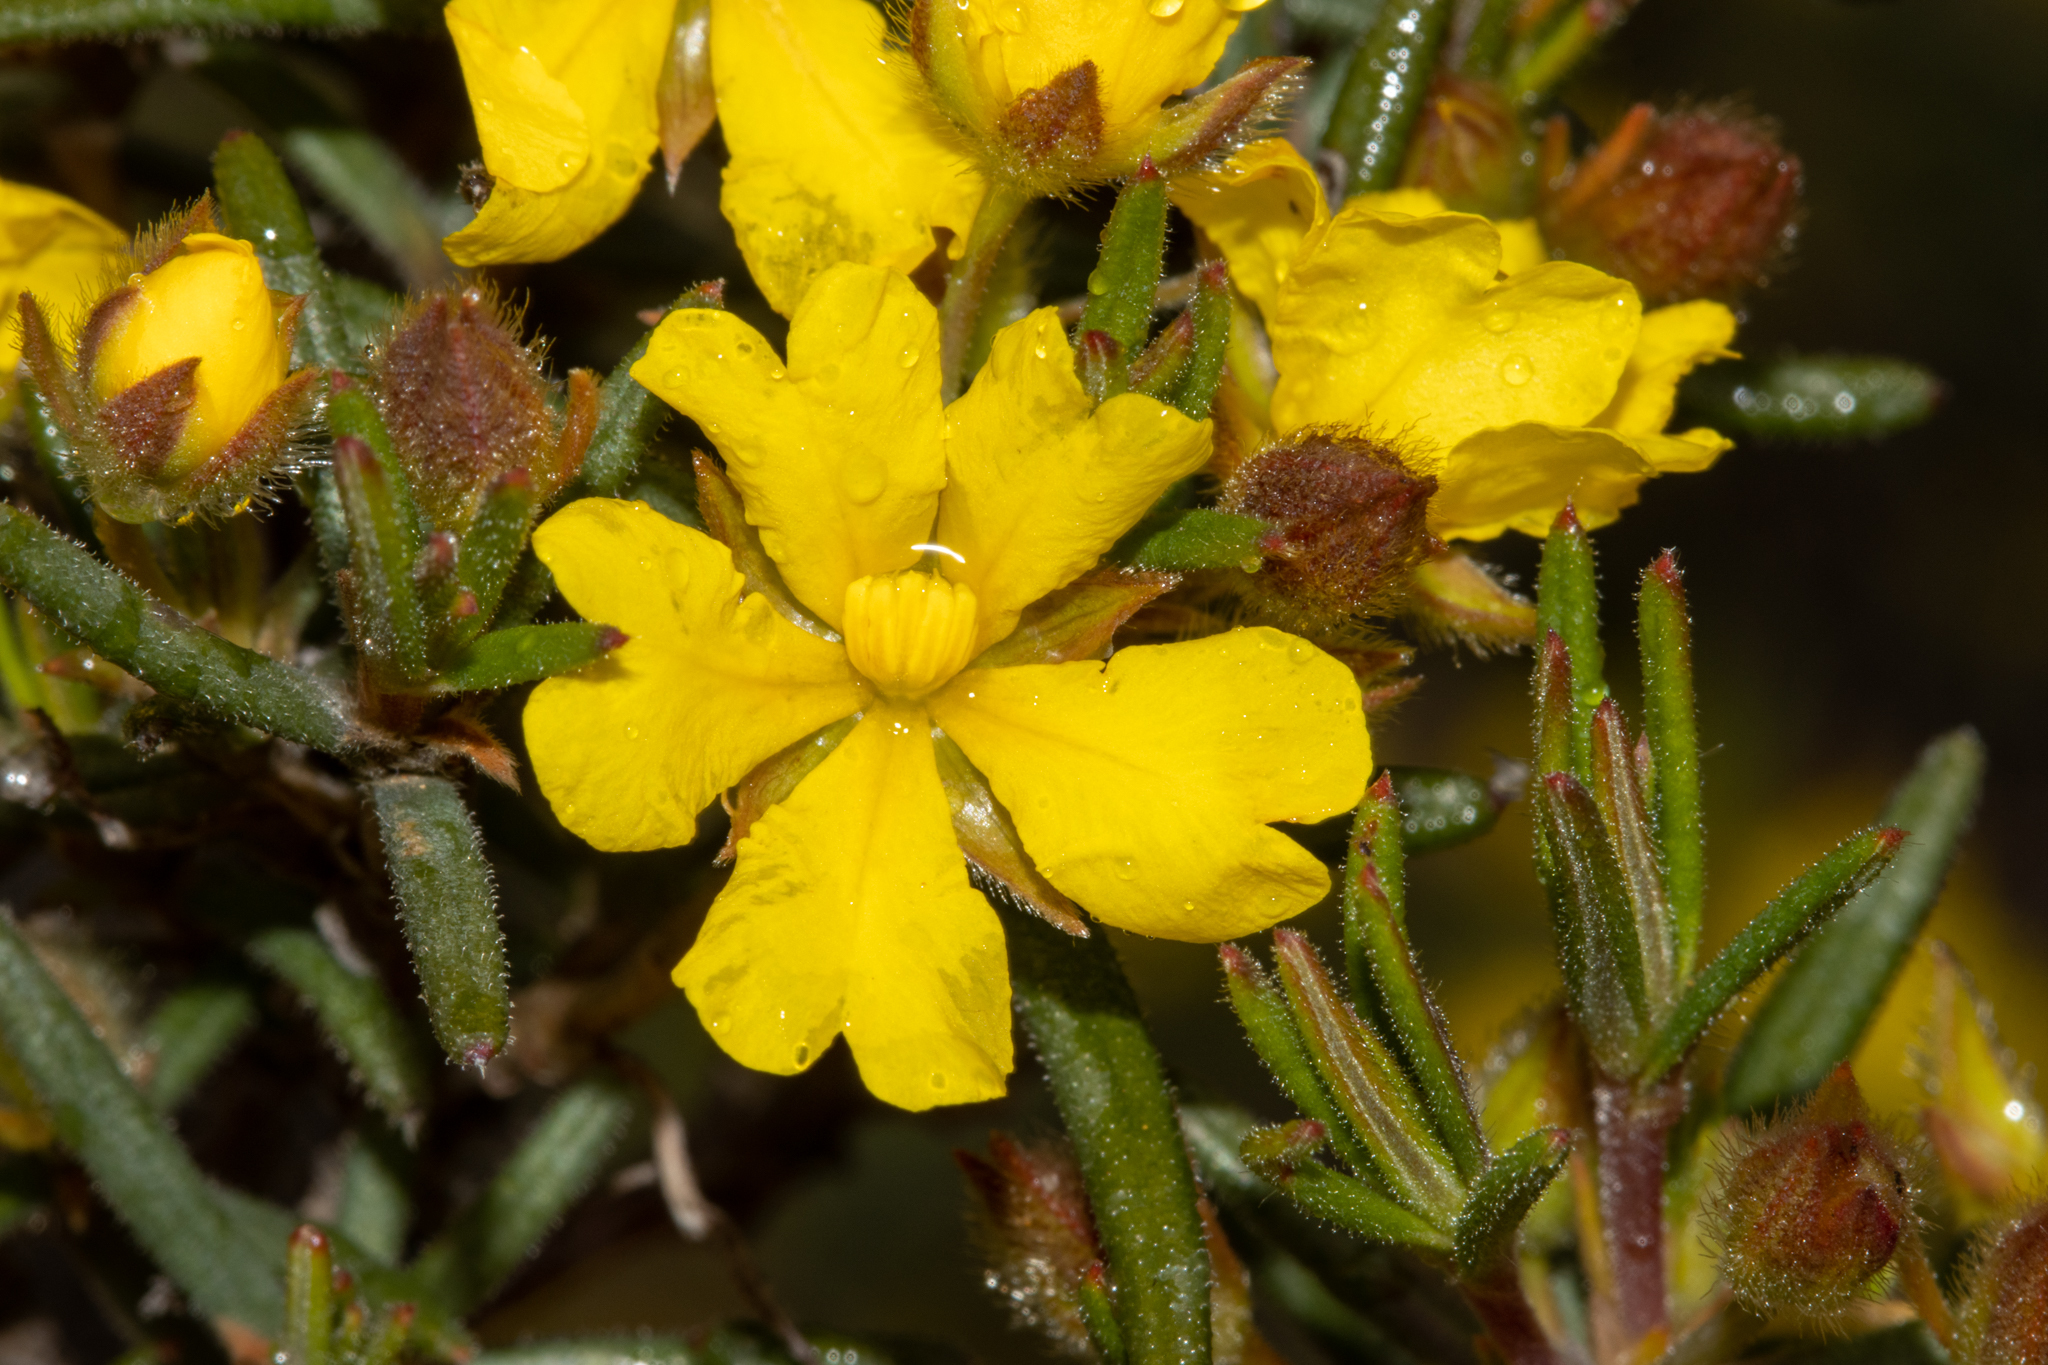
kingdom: Plantae
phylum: Tracheophyta
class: Magnoliopsida
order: Dilleniales
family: Dilleniaceae
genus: Hibbertia
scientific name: Hibbertia fasciculiflora
